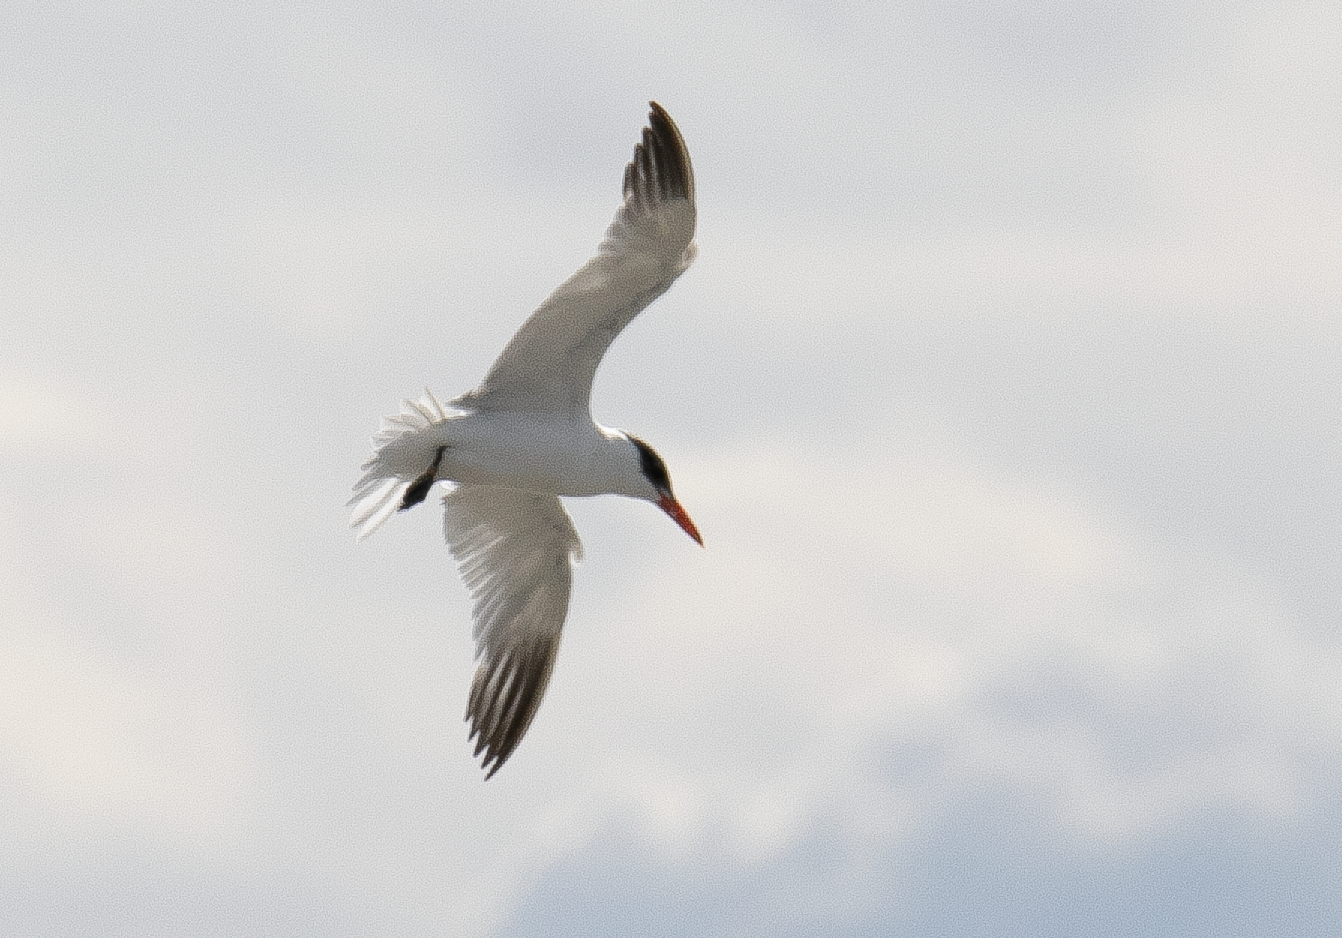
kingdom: Animalia
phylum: Chordata
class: Aves
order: Charadriiformes
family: Laridae
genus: Hydroprogne
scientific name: Hydroprogne caspia
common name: Caspian tern
